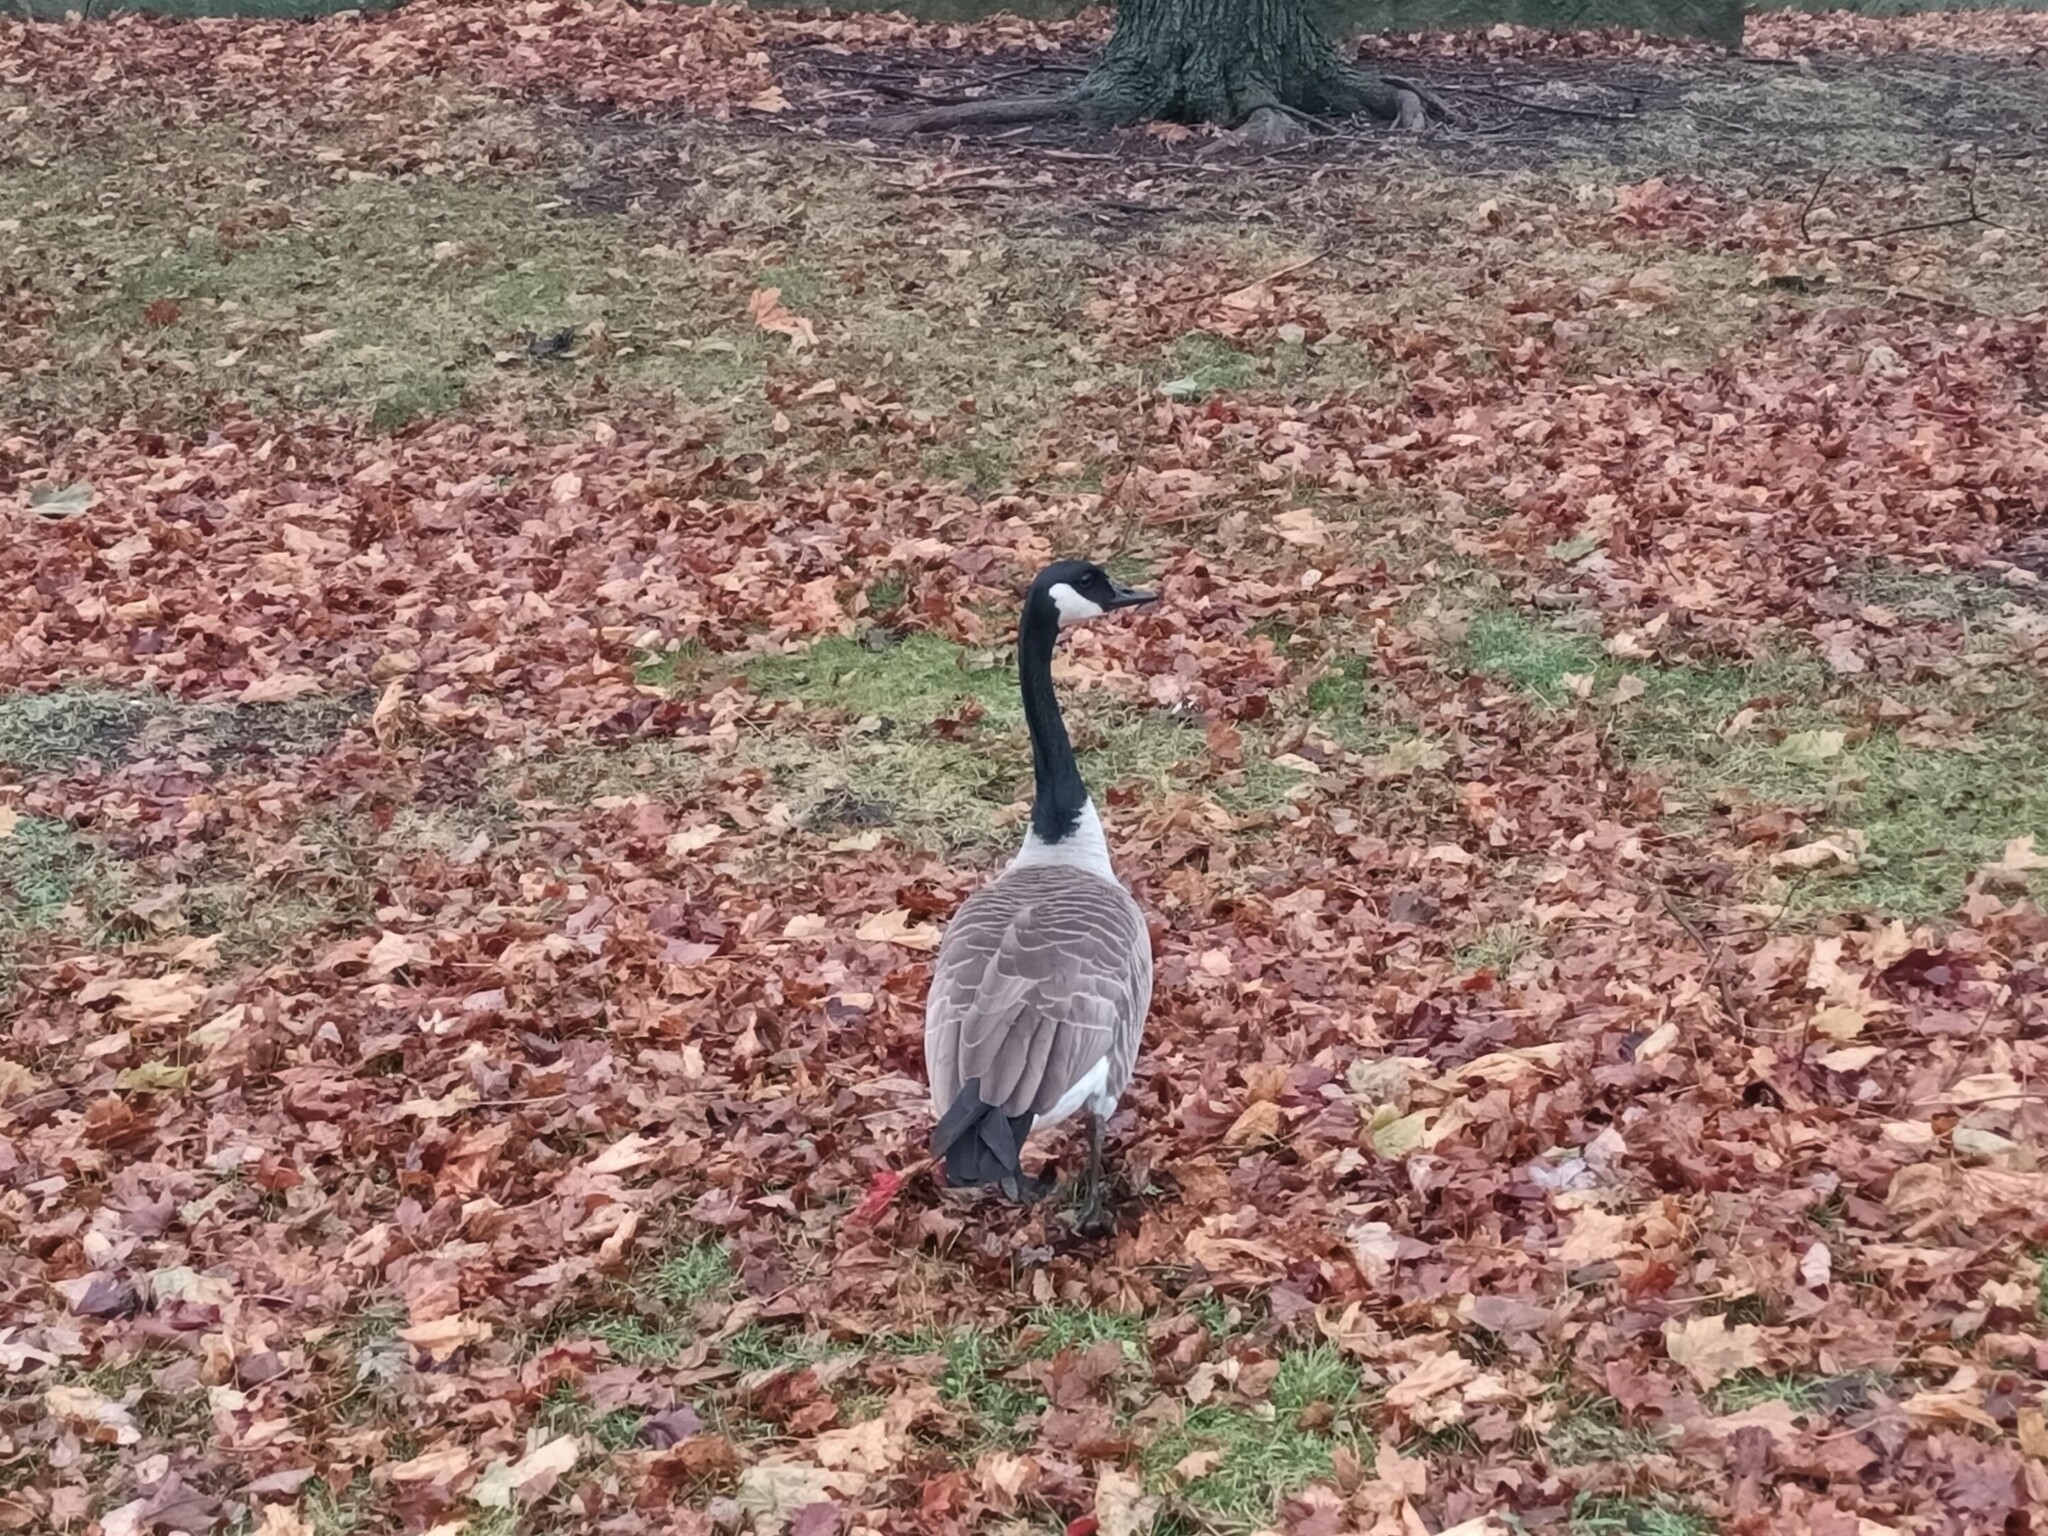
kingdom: Animalia
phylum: Chordata
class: Aves
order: Anseriformes
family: Anatidae
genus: Branta
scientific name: Branta canadensis
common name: Canada goose
